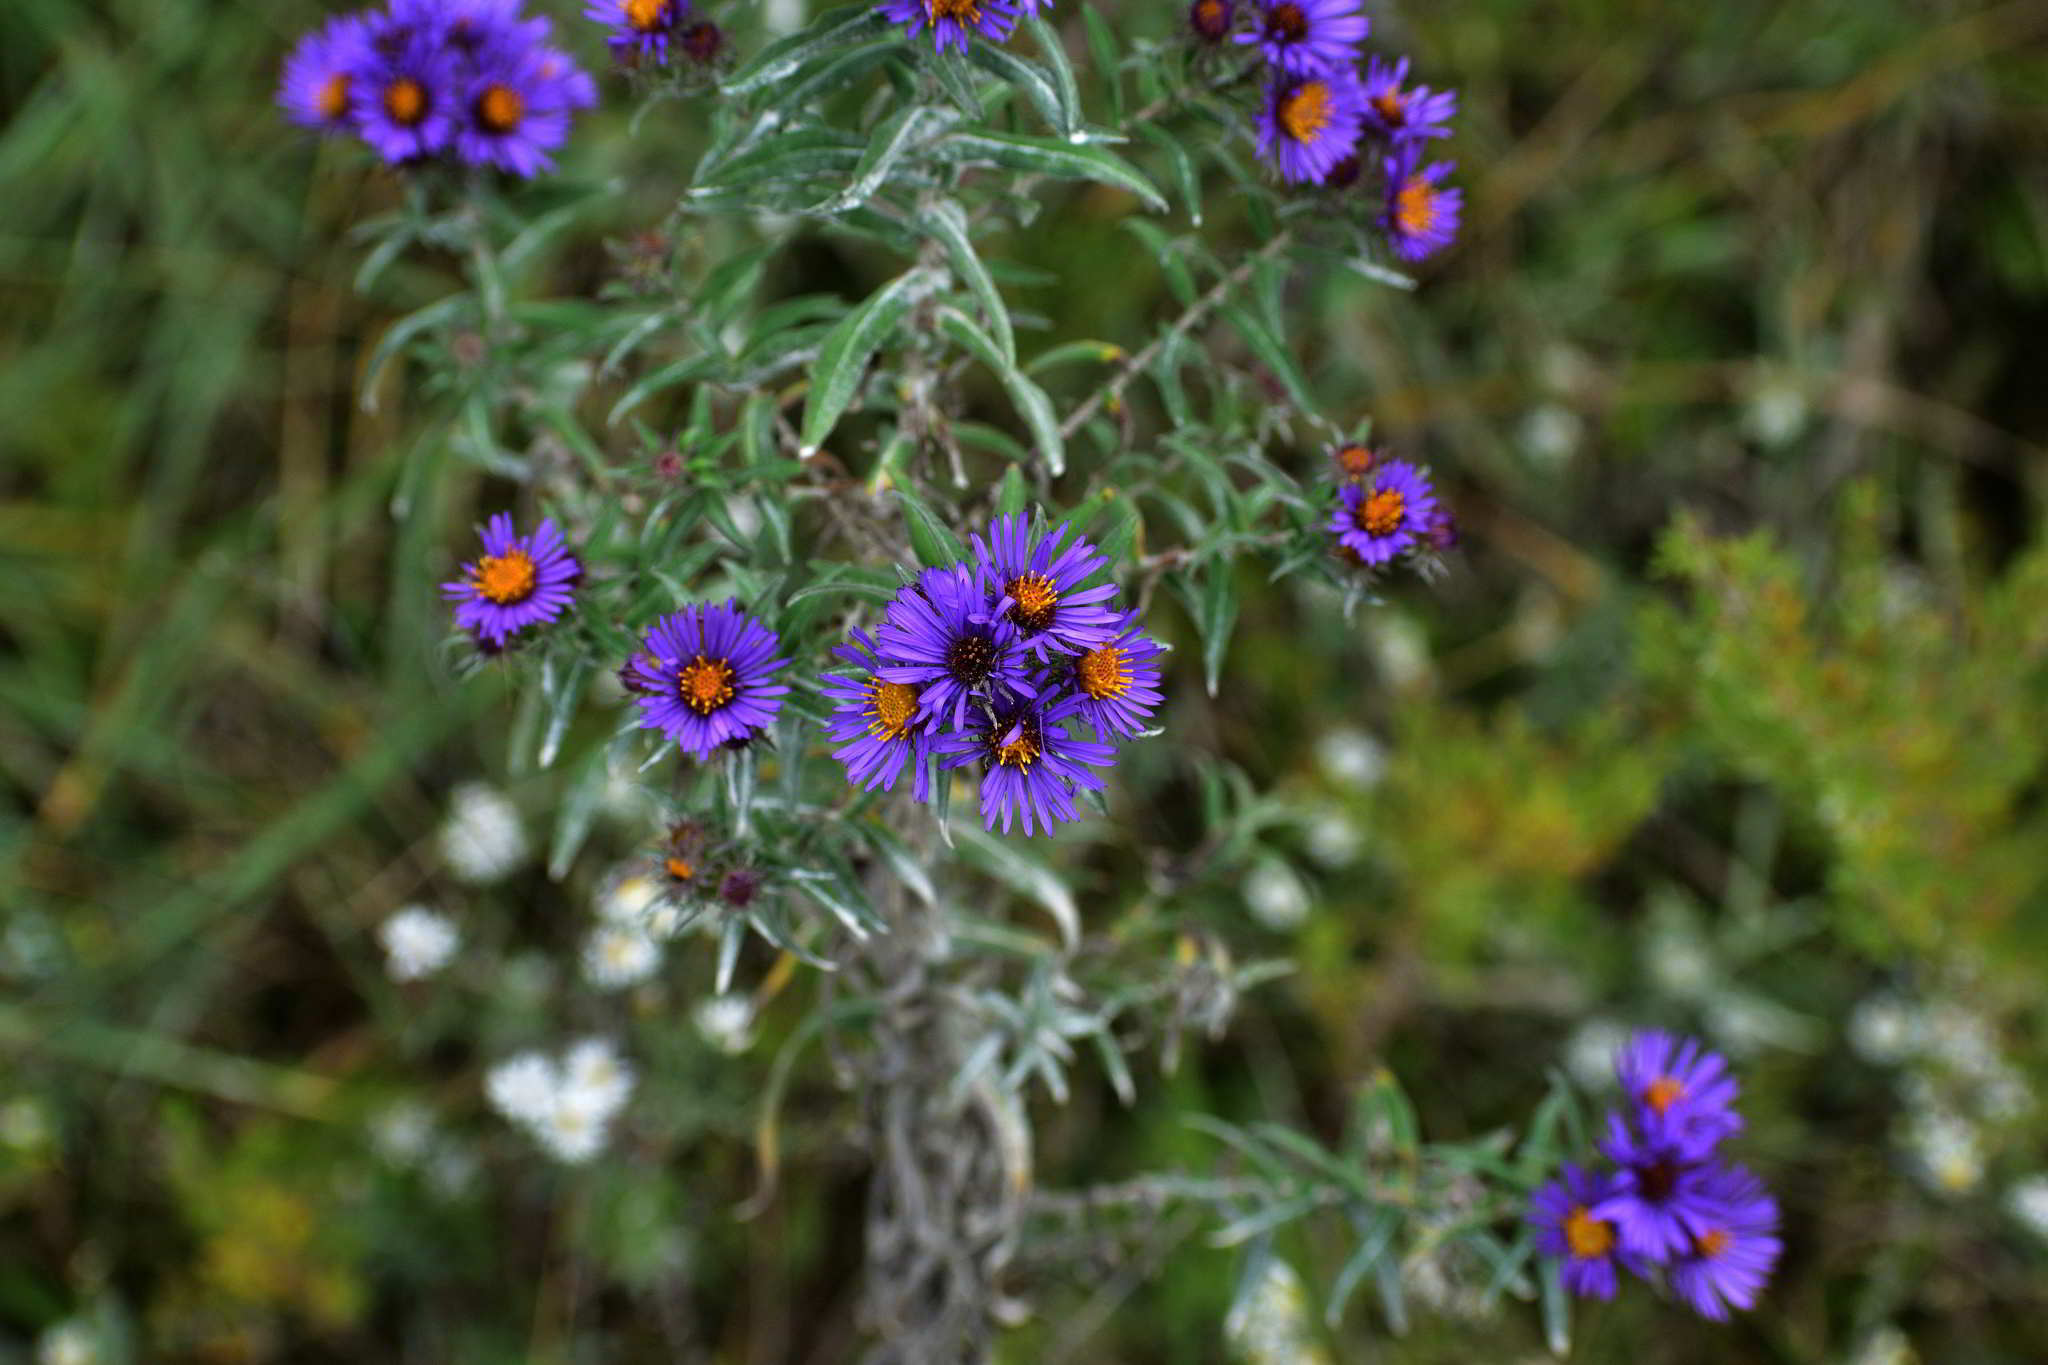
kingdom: Plantae
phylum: Tracheophyta
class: Magnoliopsida
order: Asterales
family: Asteraceae
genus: Symphyotrichum
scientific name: Symphyotrichum novae-angliae
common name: Michaelmas daisy
